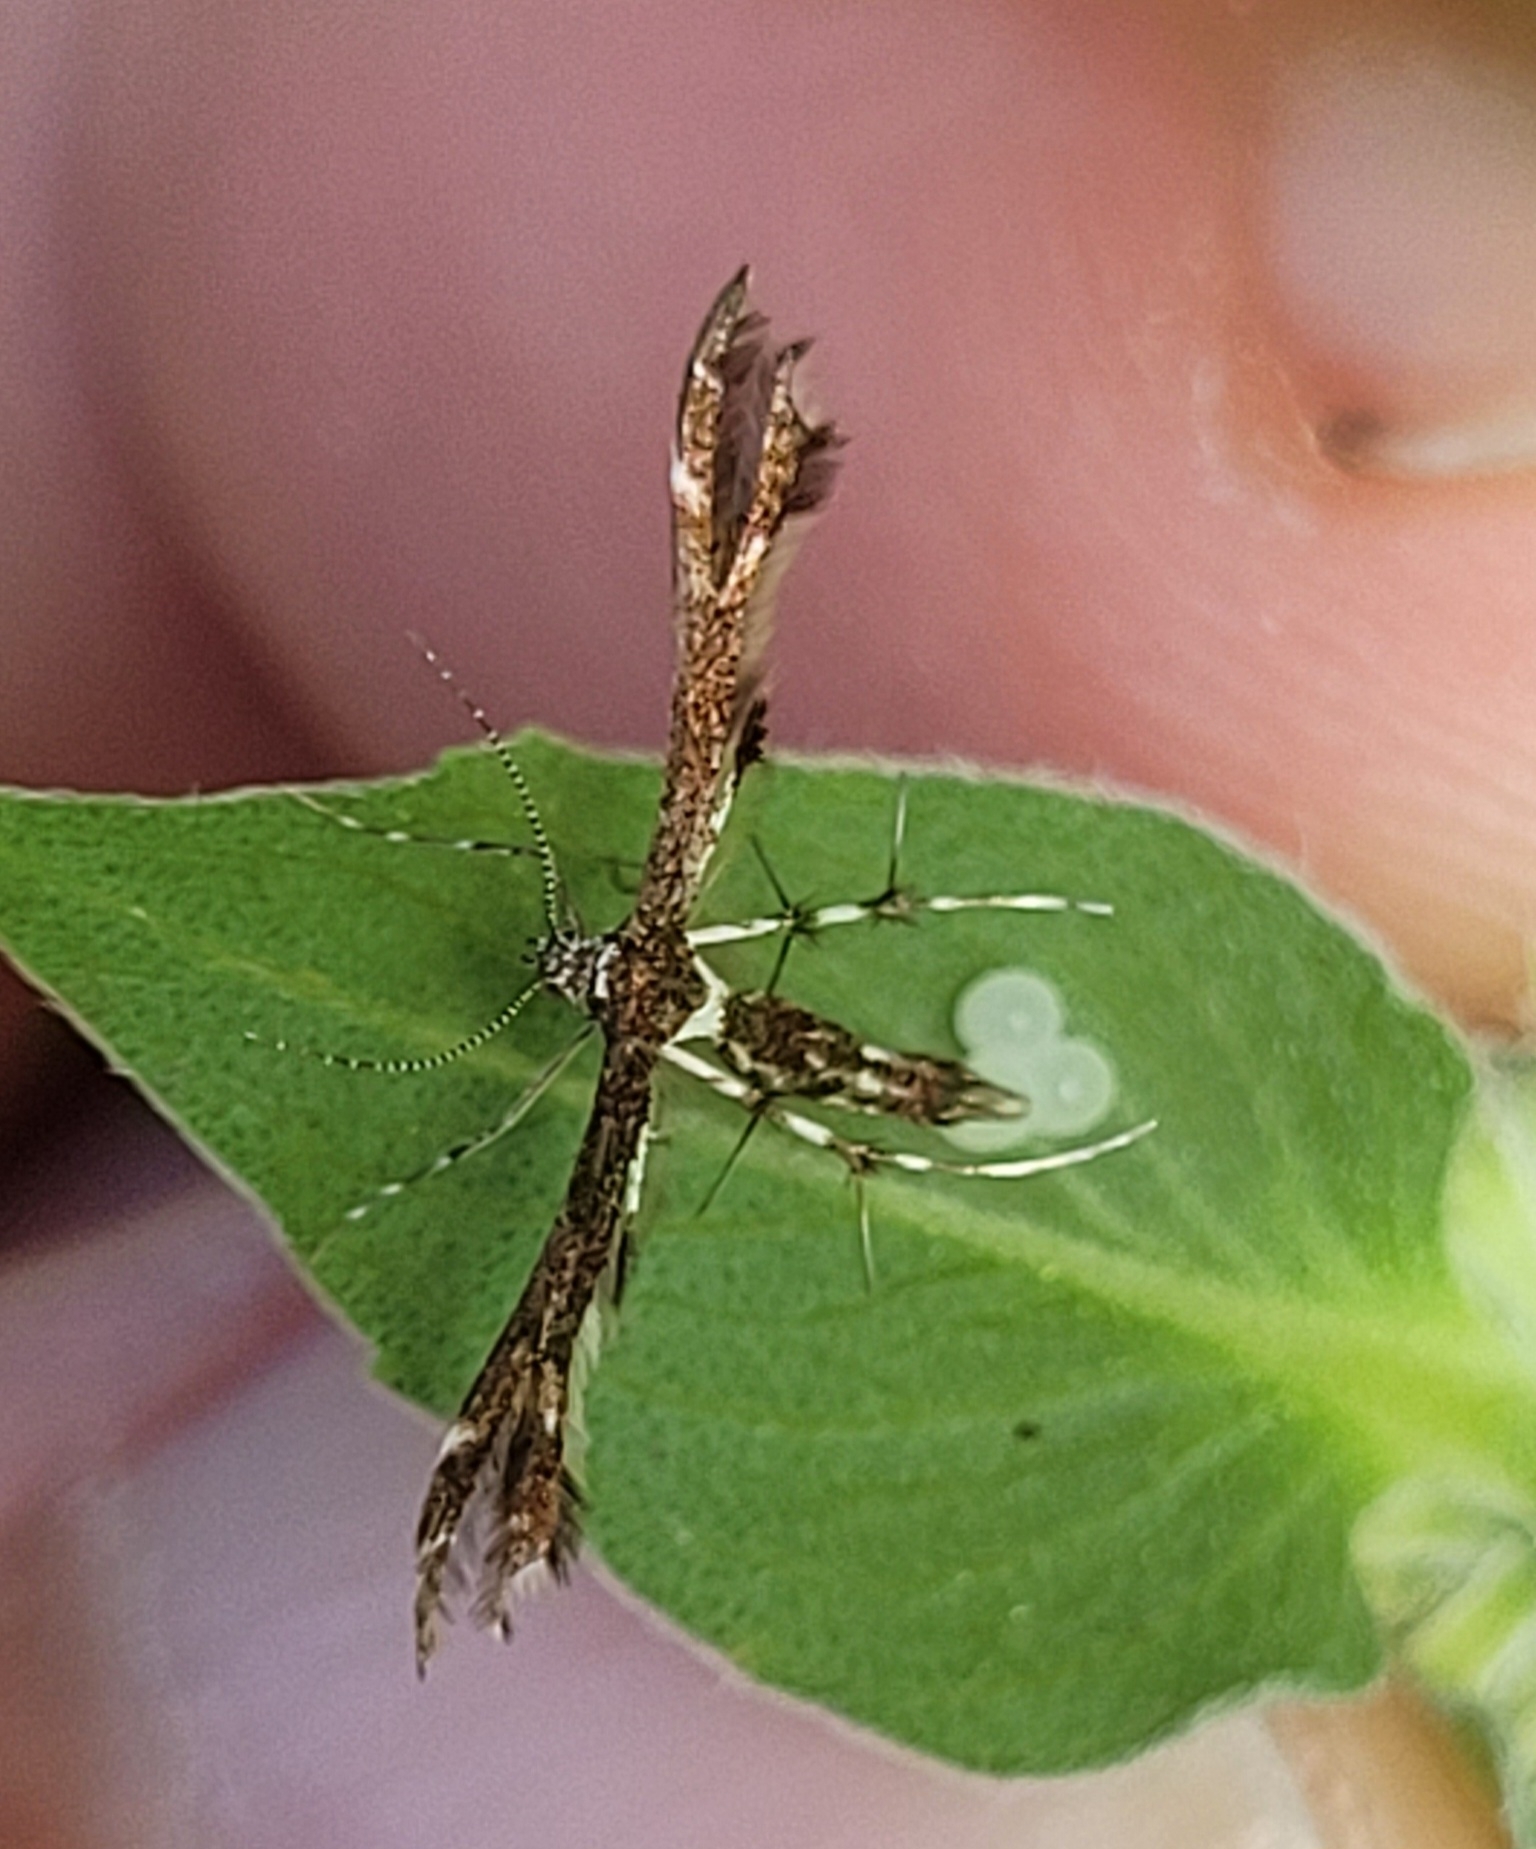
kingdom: Animalia
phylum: Arthropoda
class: Insecta
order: Lepidoptera
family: Pterophoridae
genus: Geina
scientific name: Geina
